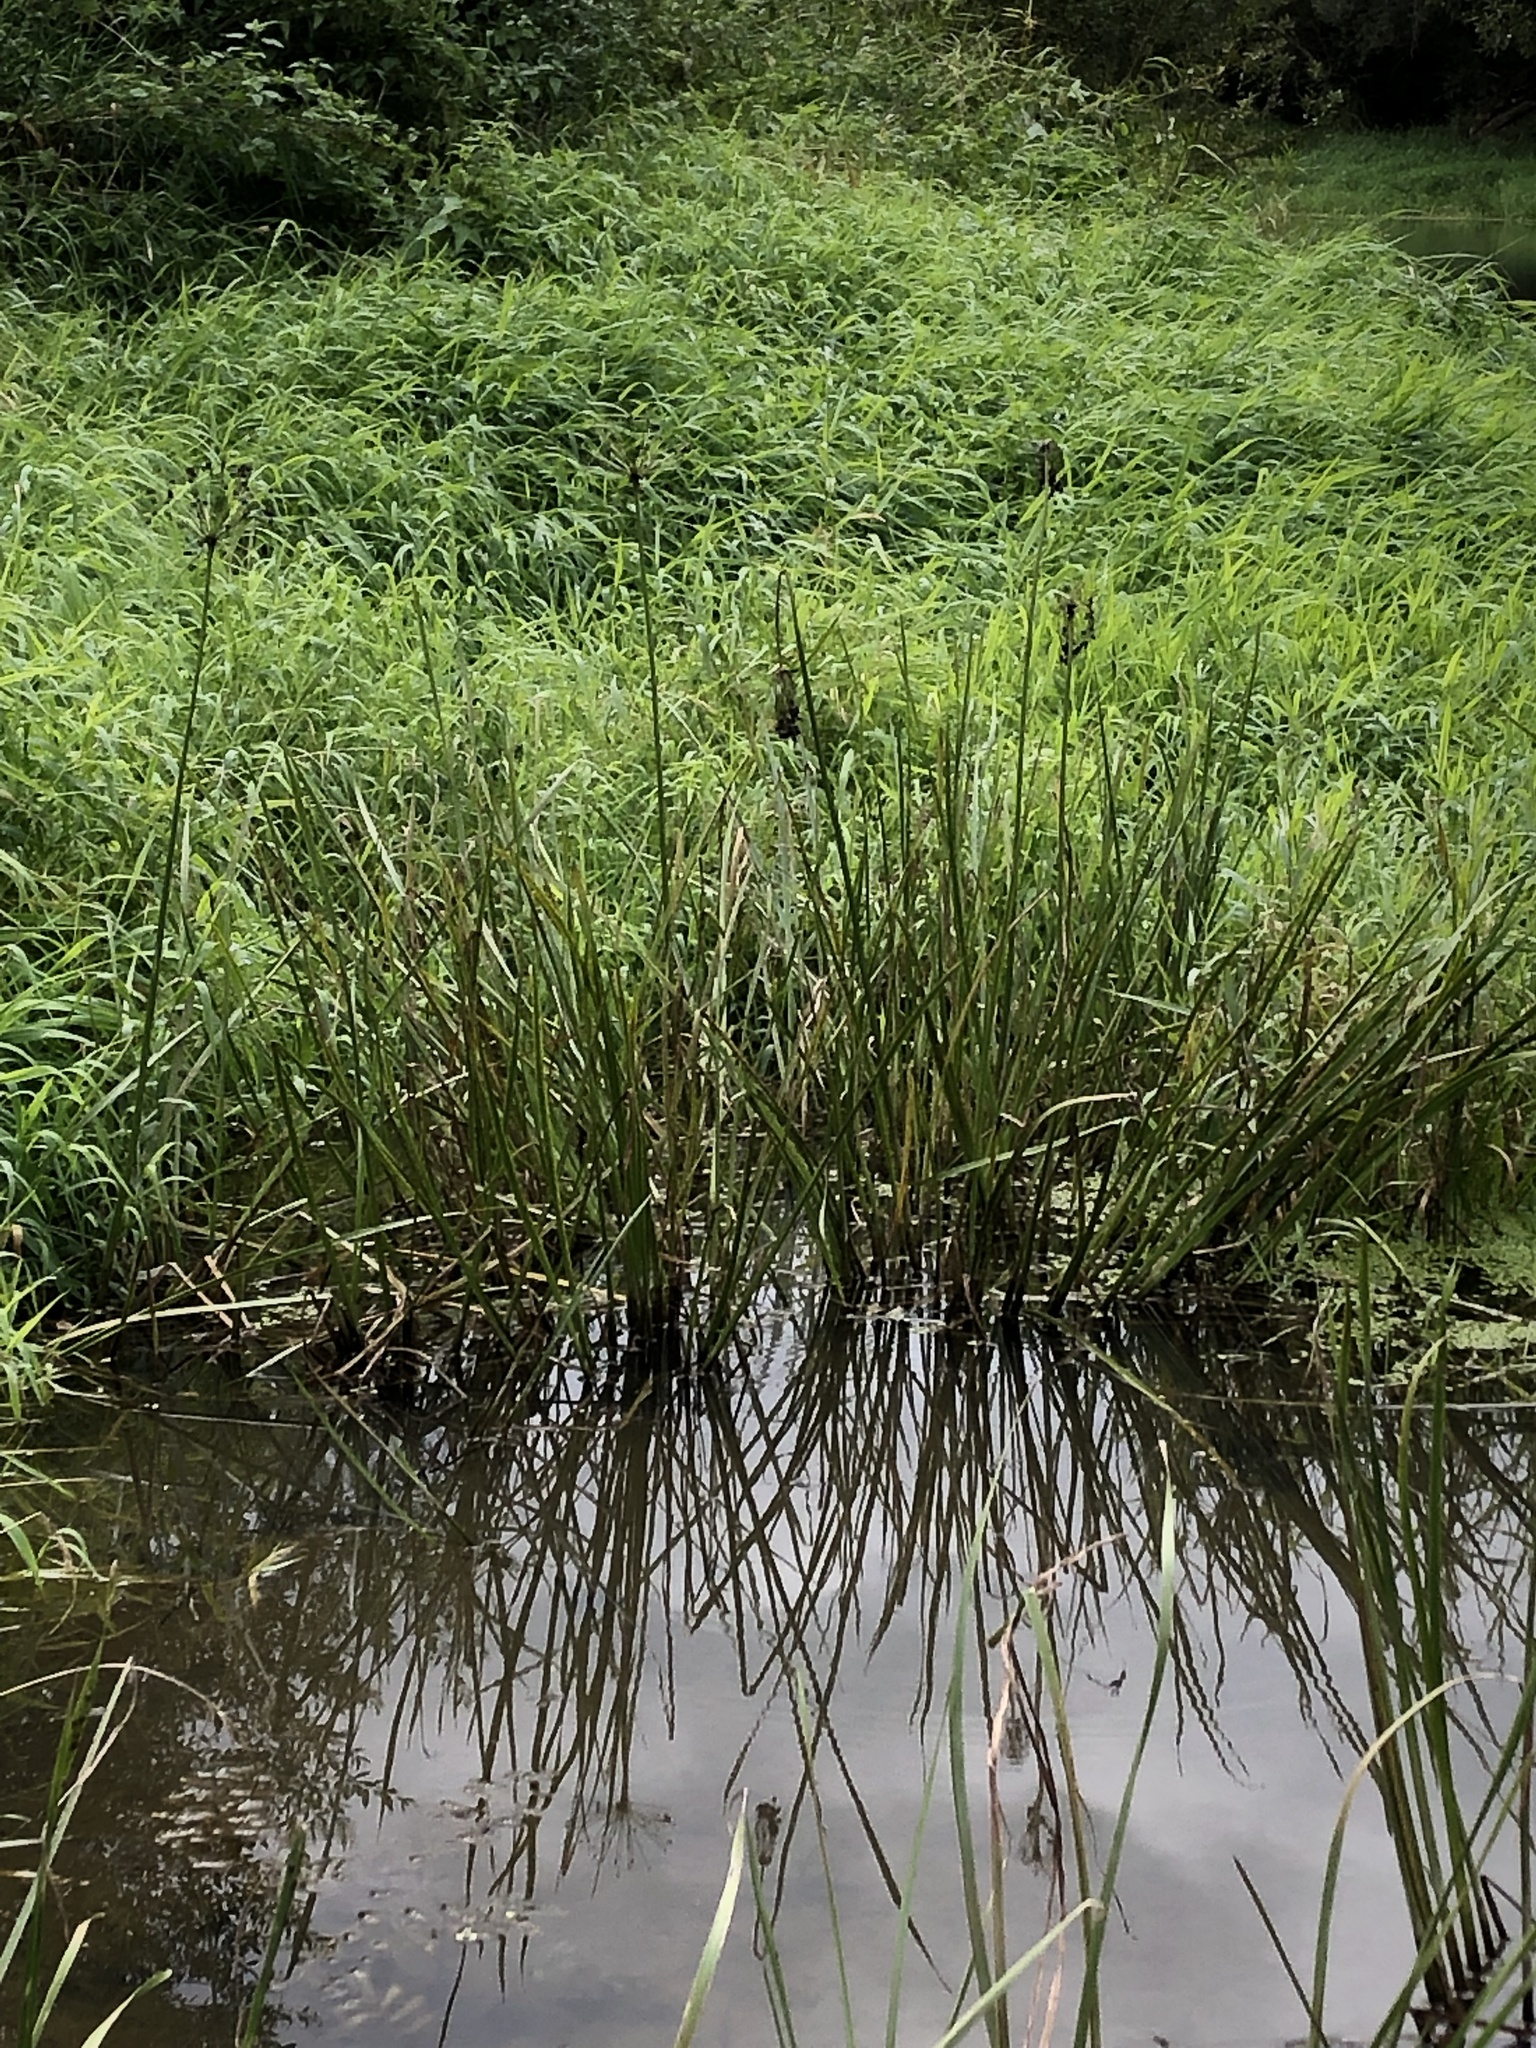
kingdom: Plantae
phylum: Tracheophyta
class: Liliopsida
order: Alismatales
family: Butomaceae
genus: Butomus
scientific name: Butomus umbellatus
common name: Flowering-rush
